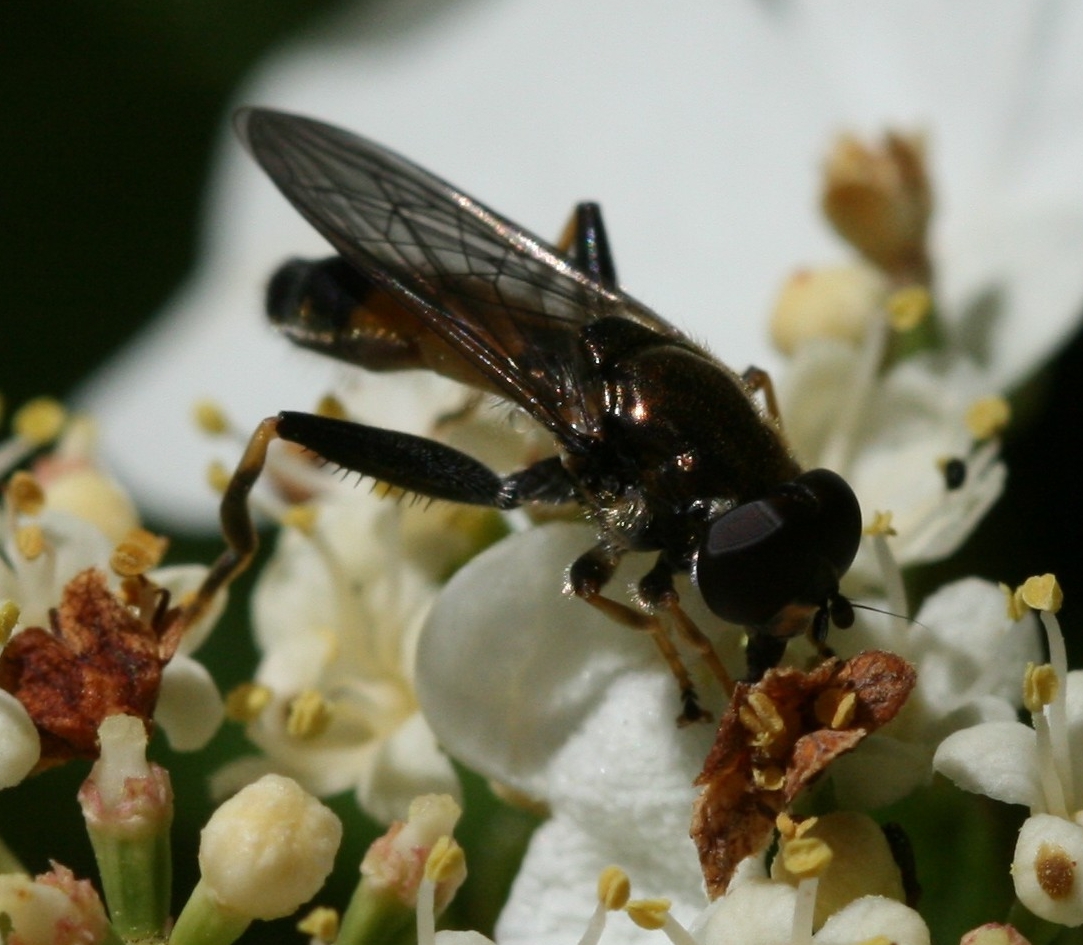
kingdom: Animalia
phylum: Arthropoda
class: Insecta
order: Diptera
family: Syrphidae
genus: Xylota
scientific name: Xylota segnis
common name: Brown-toed forest fly
